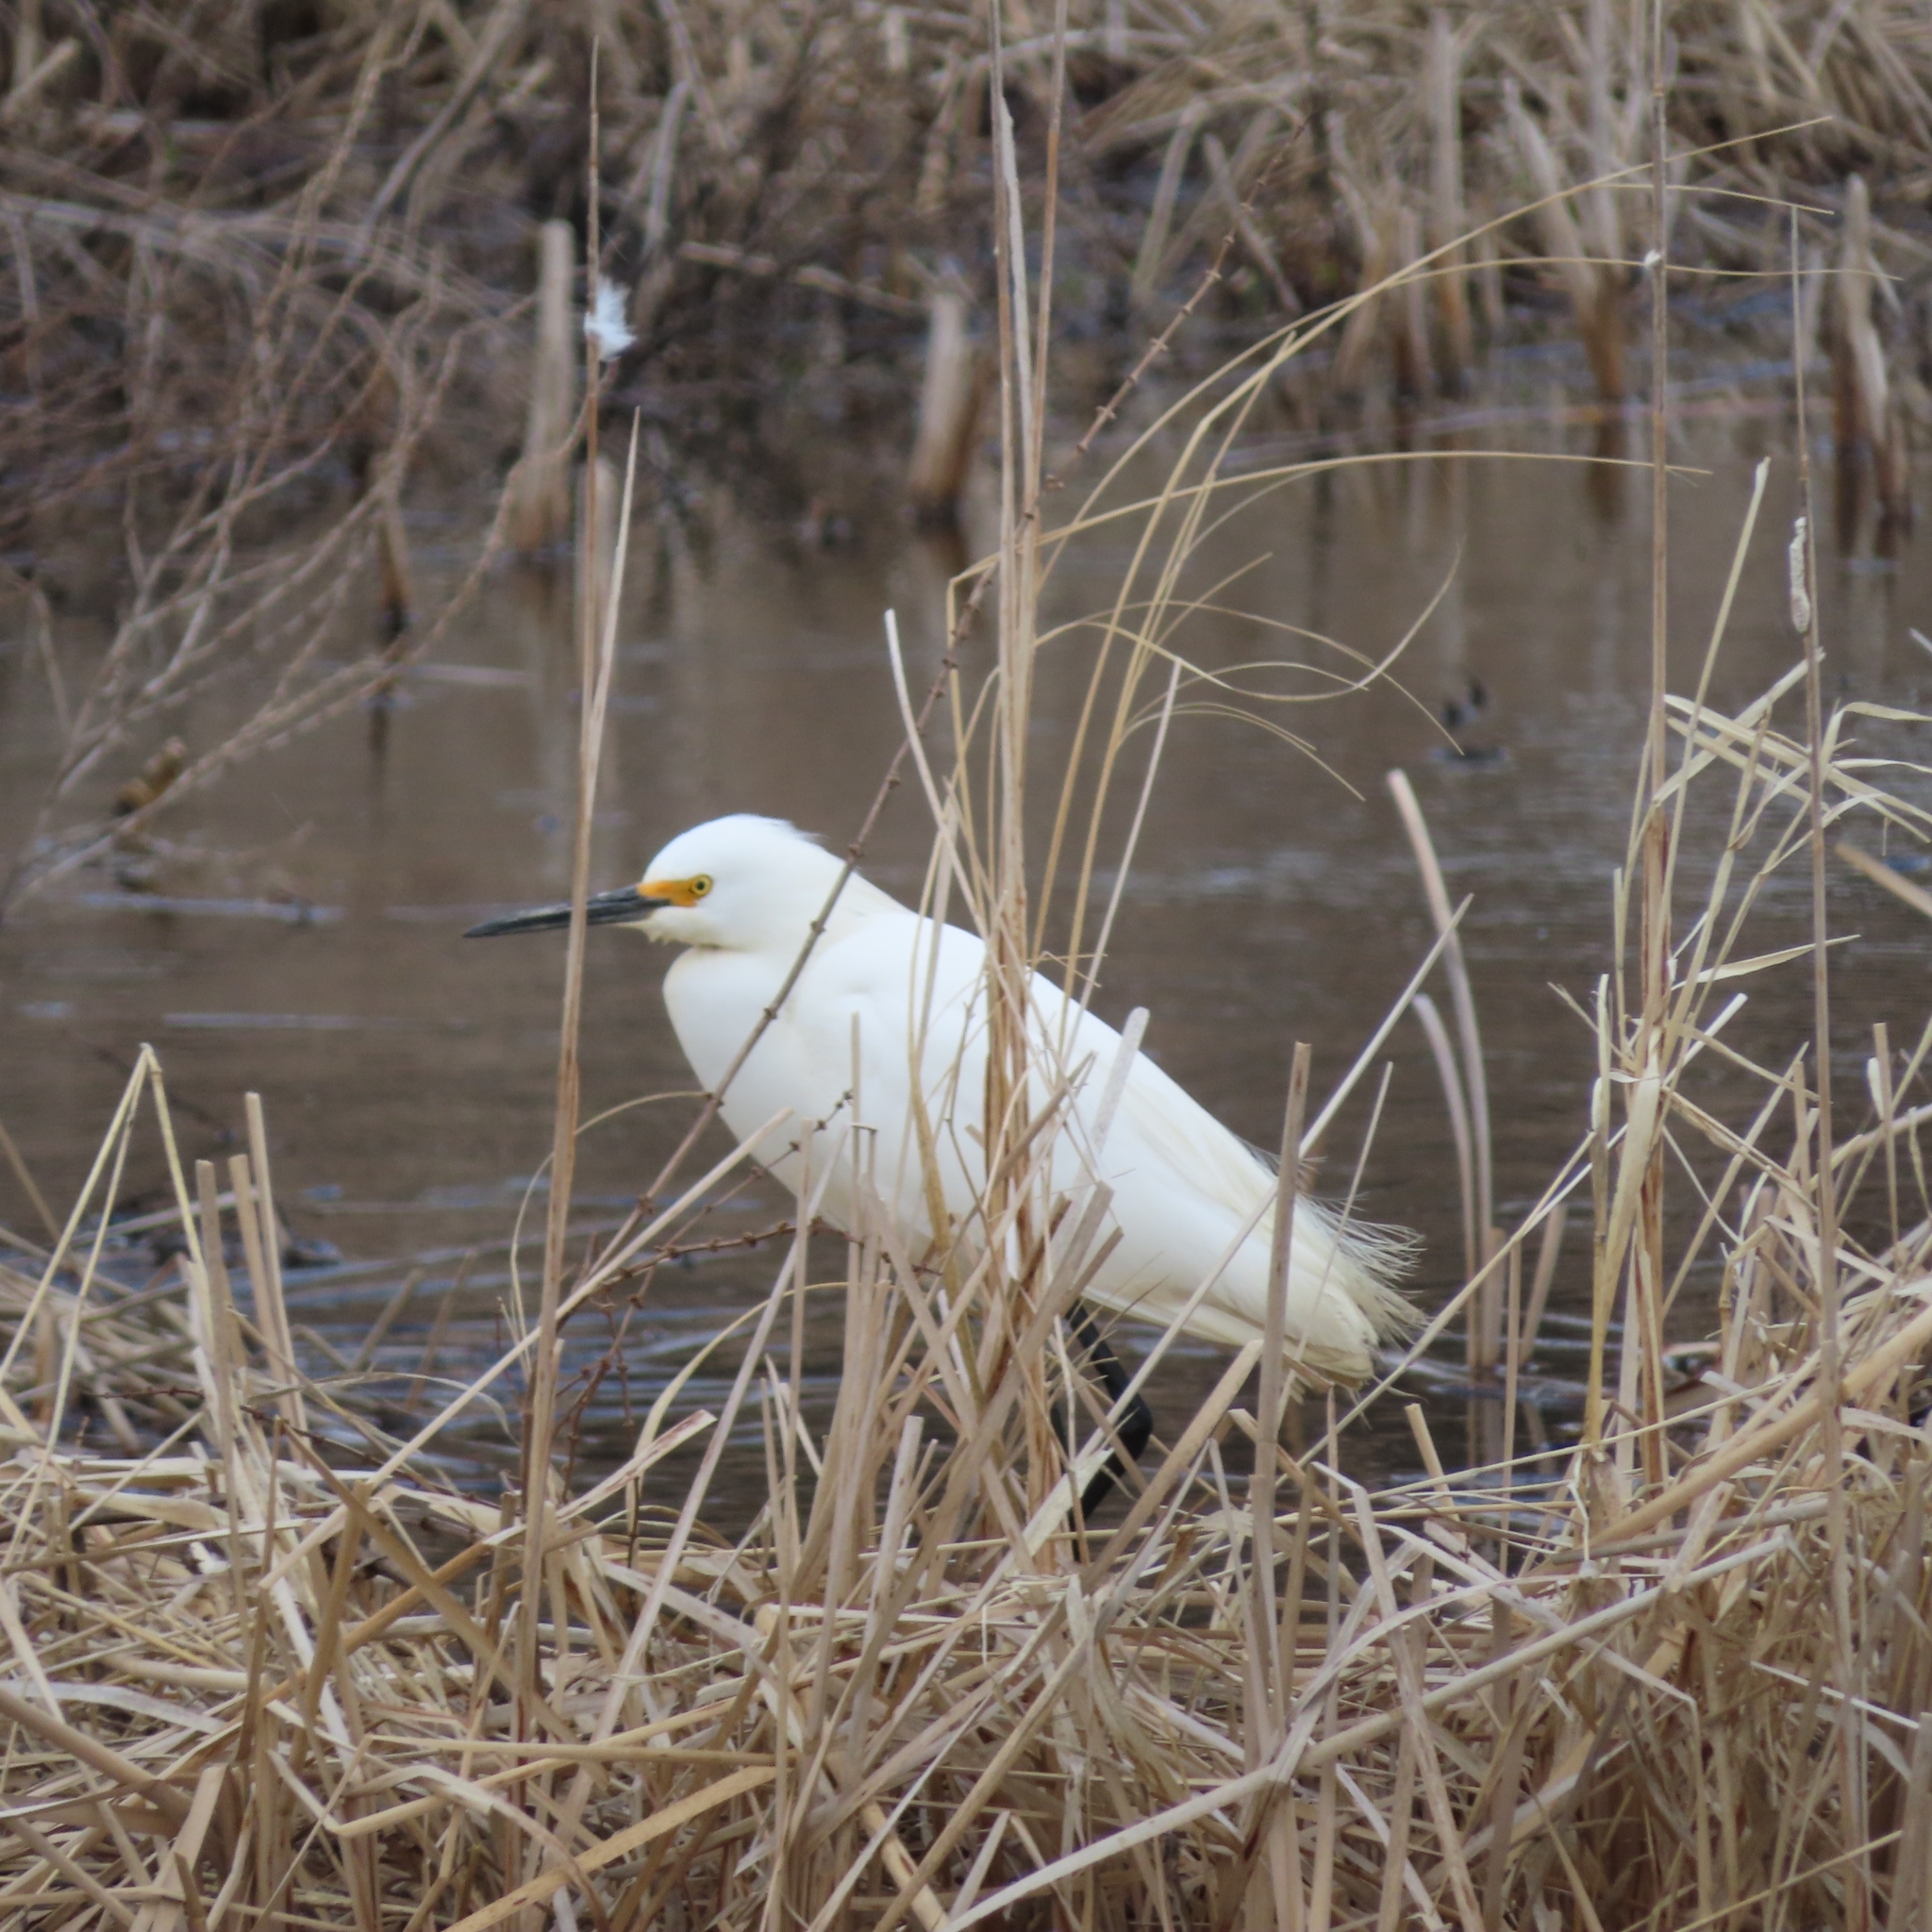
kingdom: Animalia
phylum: Chordata
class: Aves
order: Pelecaniformes
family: Ardeidae
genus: Egretta
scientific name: Egretta thula
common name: Snowy egret
